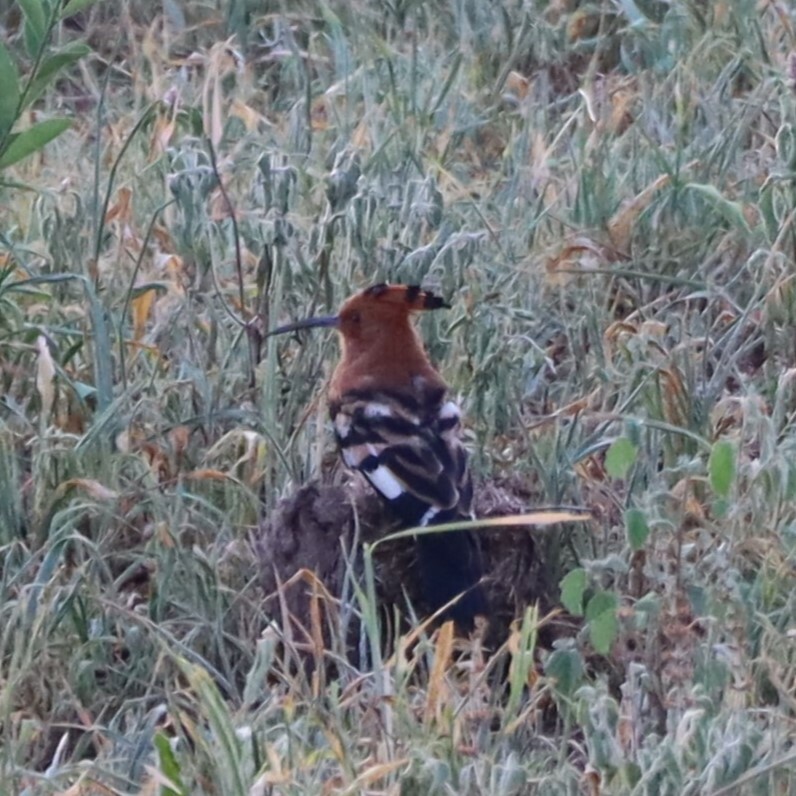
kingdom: Animalia
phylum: Chordata
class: Aves
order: Bucerotiformes
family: Upupidae
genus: Upupa
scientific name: Upupa africana
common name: African hoopoe
